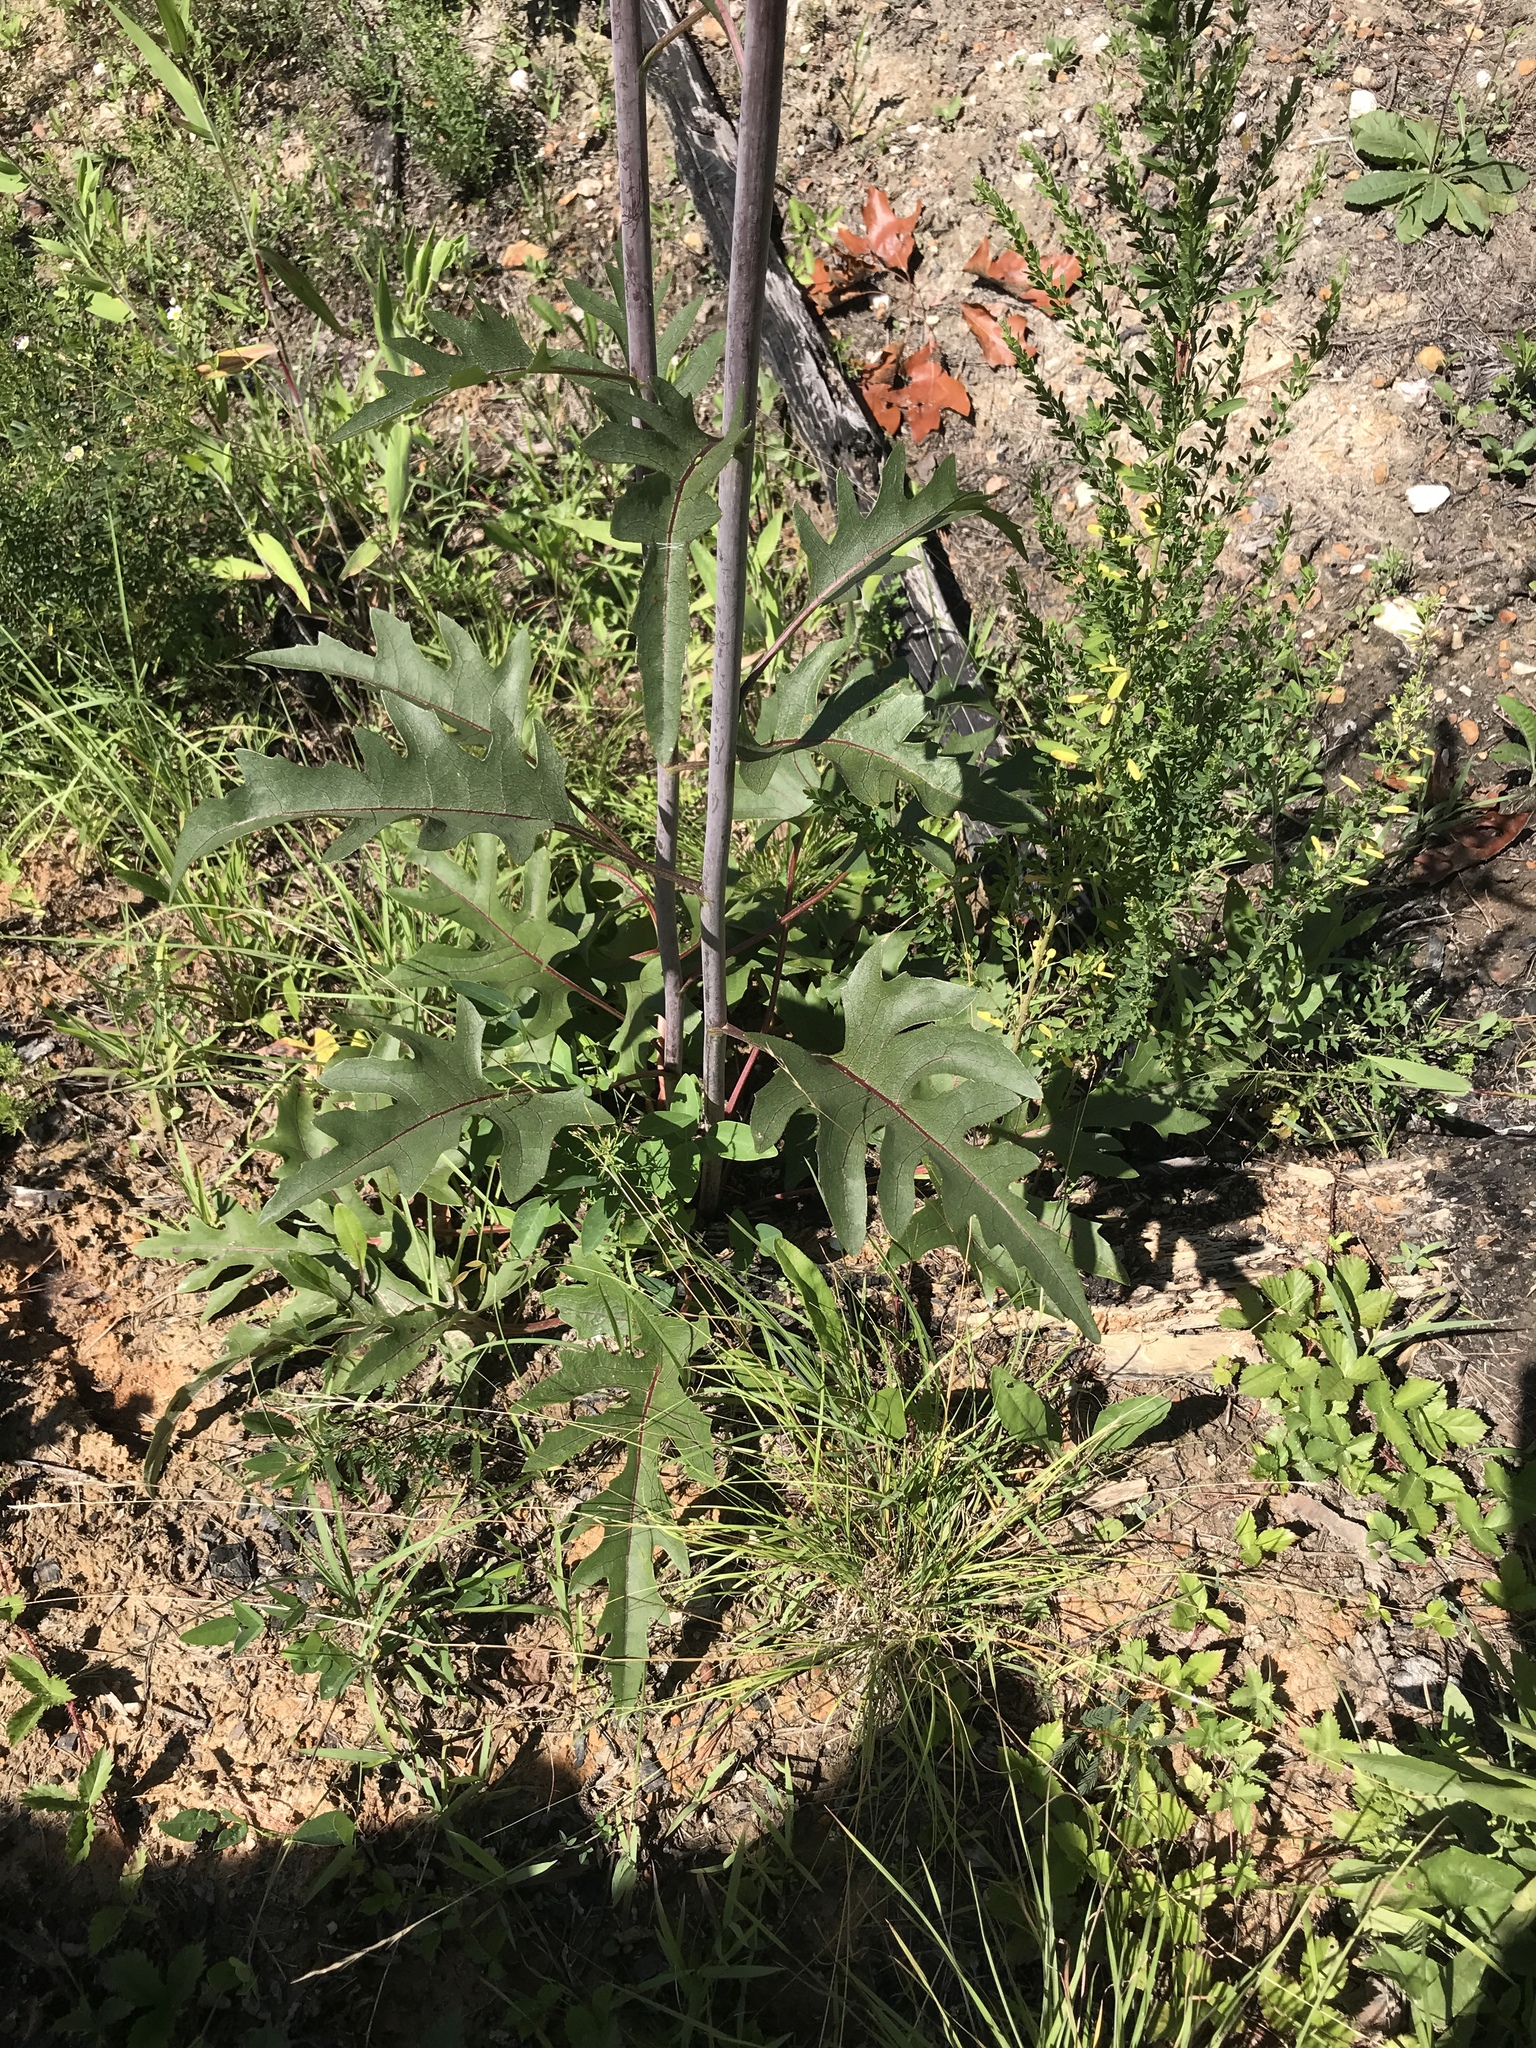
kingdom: Plantae
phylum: Tracheophyta
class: Magnoliopsida
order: Asterales
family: Asteraceae
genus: Silphium
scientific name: Silphium compositum
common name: Lesser basal-leaf rosinweed
